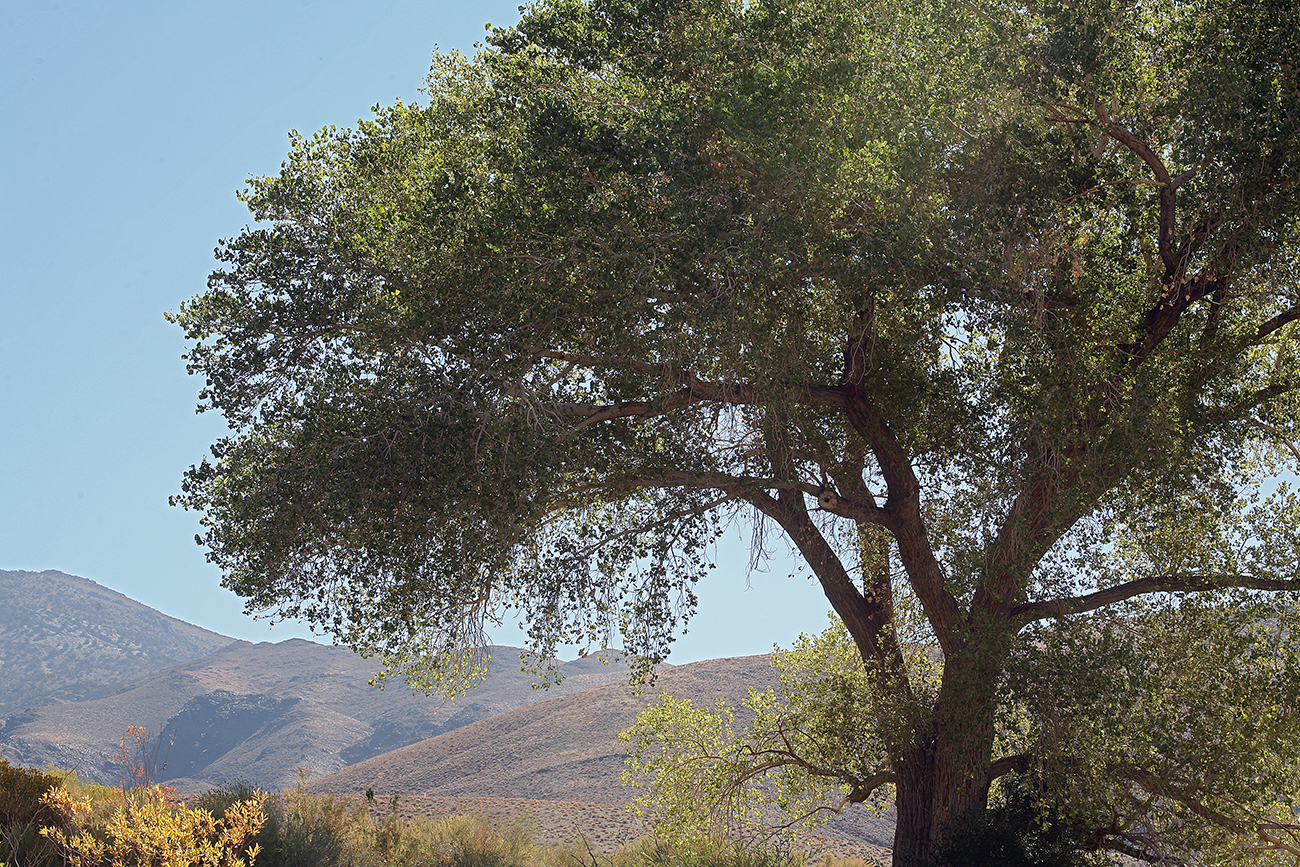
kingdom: Plantae
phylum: Tracheophyta
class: Magnoliopsida
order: Malpighiales
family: Salicaceae
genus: Populus
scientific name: Populus fremontii
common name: Fremont's cottonwood
